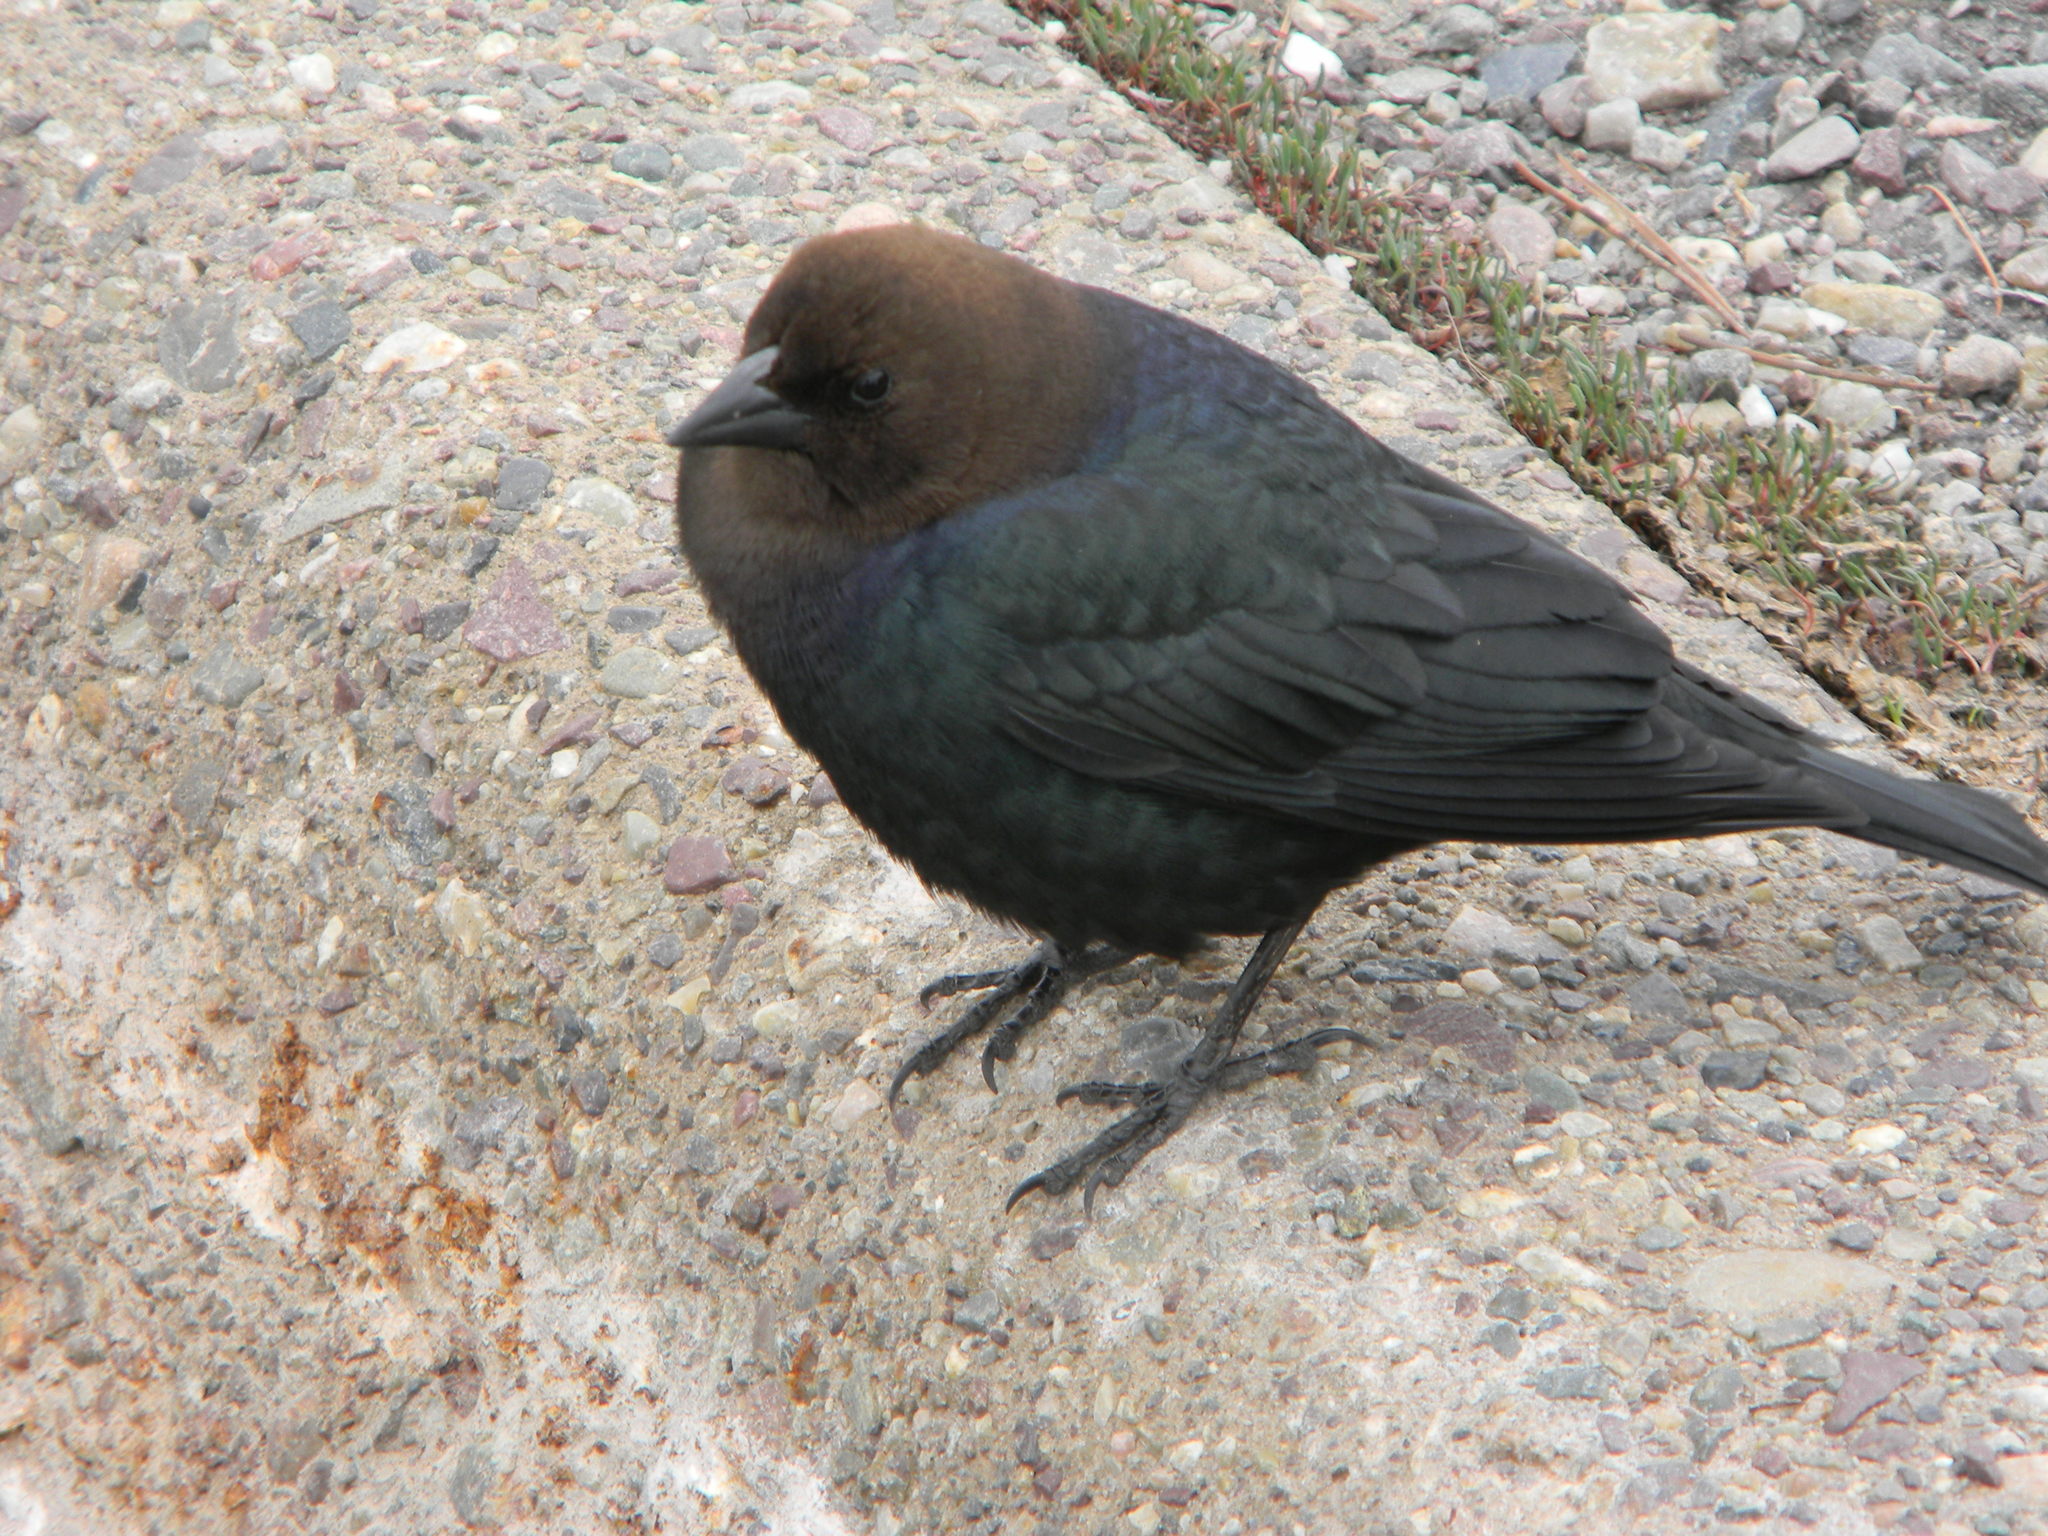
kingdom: Animalia
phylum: Chordata
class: Aves
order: Passeriformes
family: Icteridae
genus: Molothrus
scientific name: Molothrus ater
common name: Brown-headed cowbird
